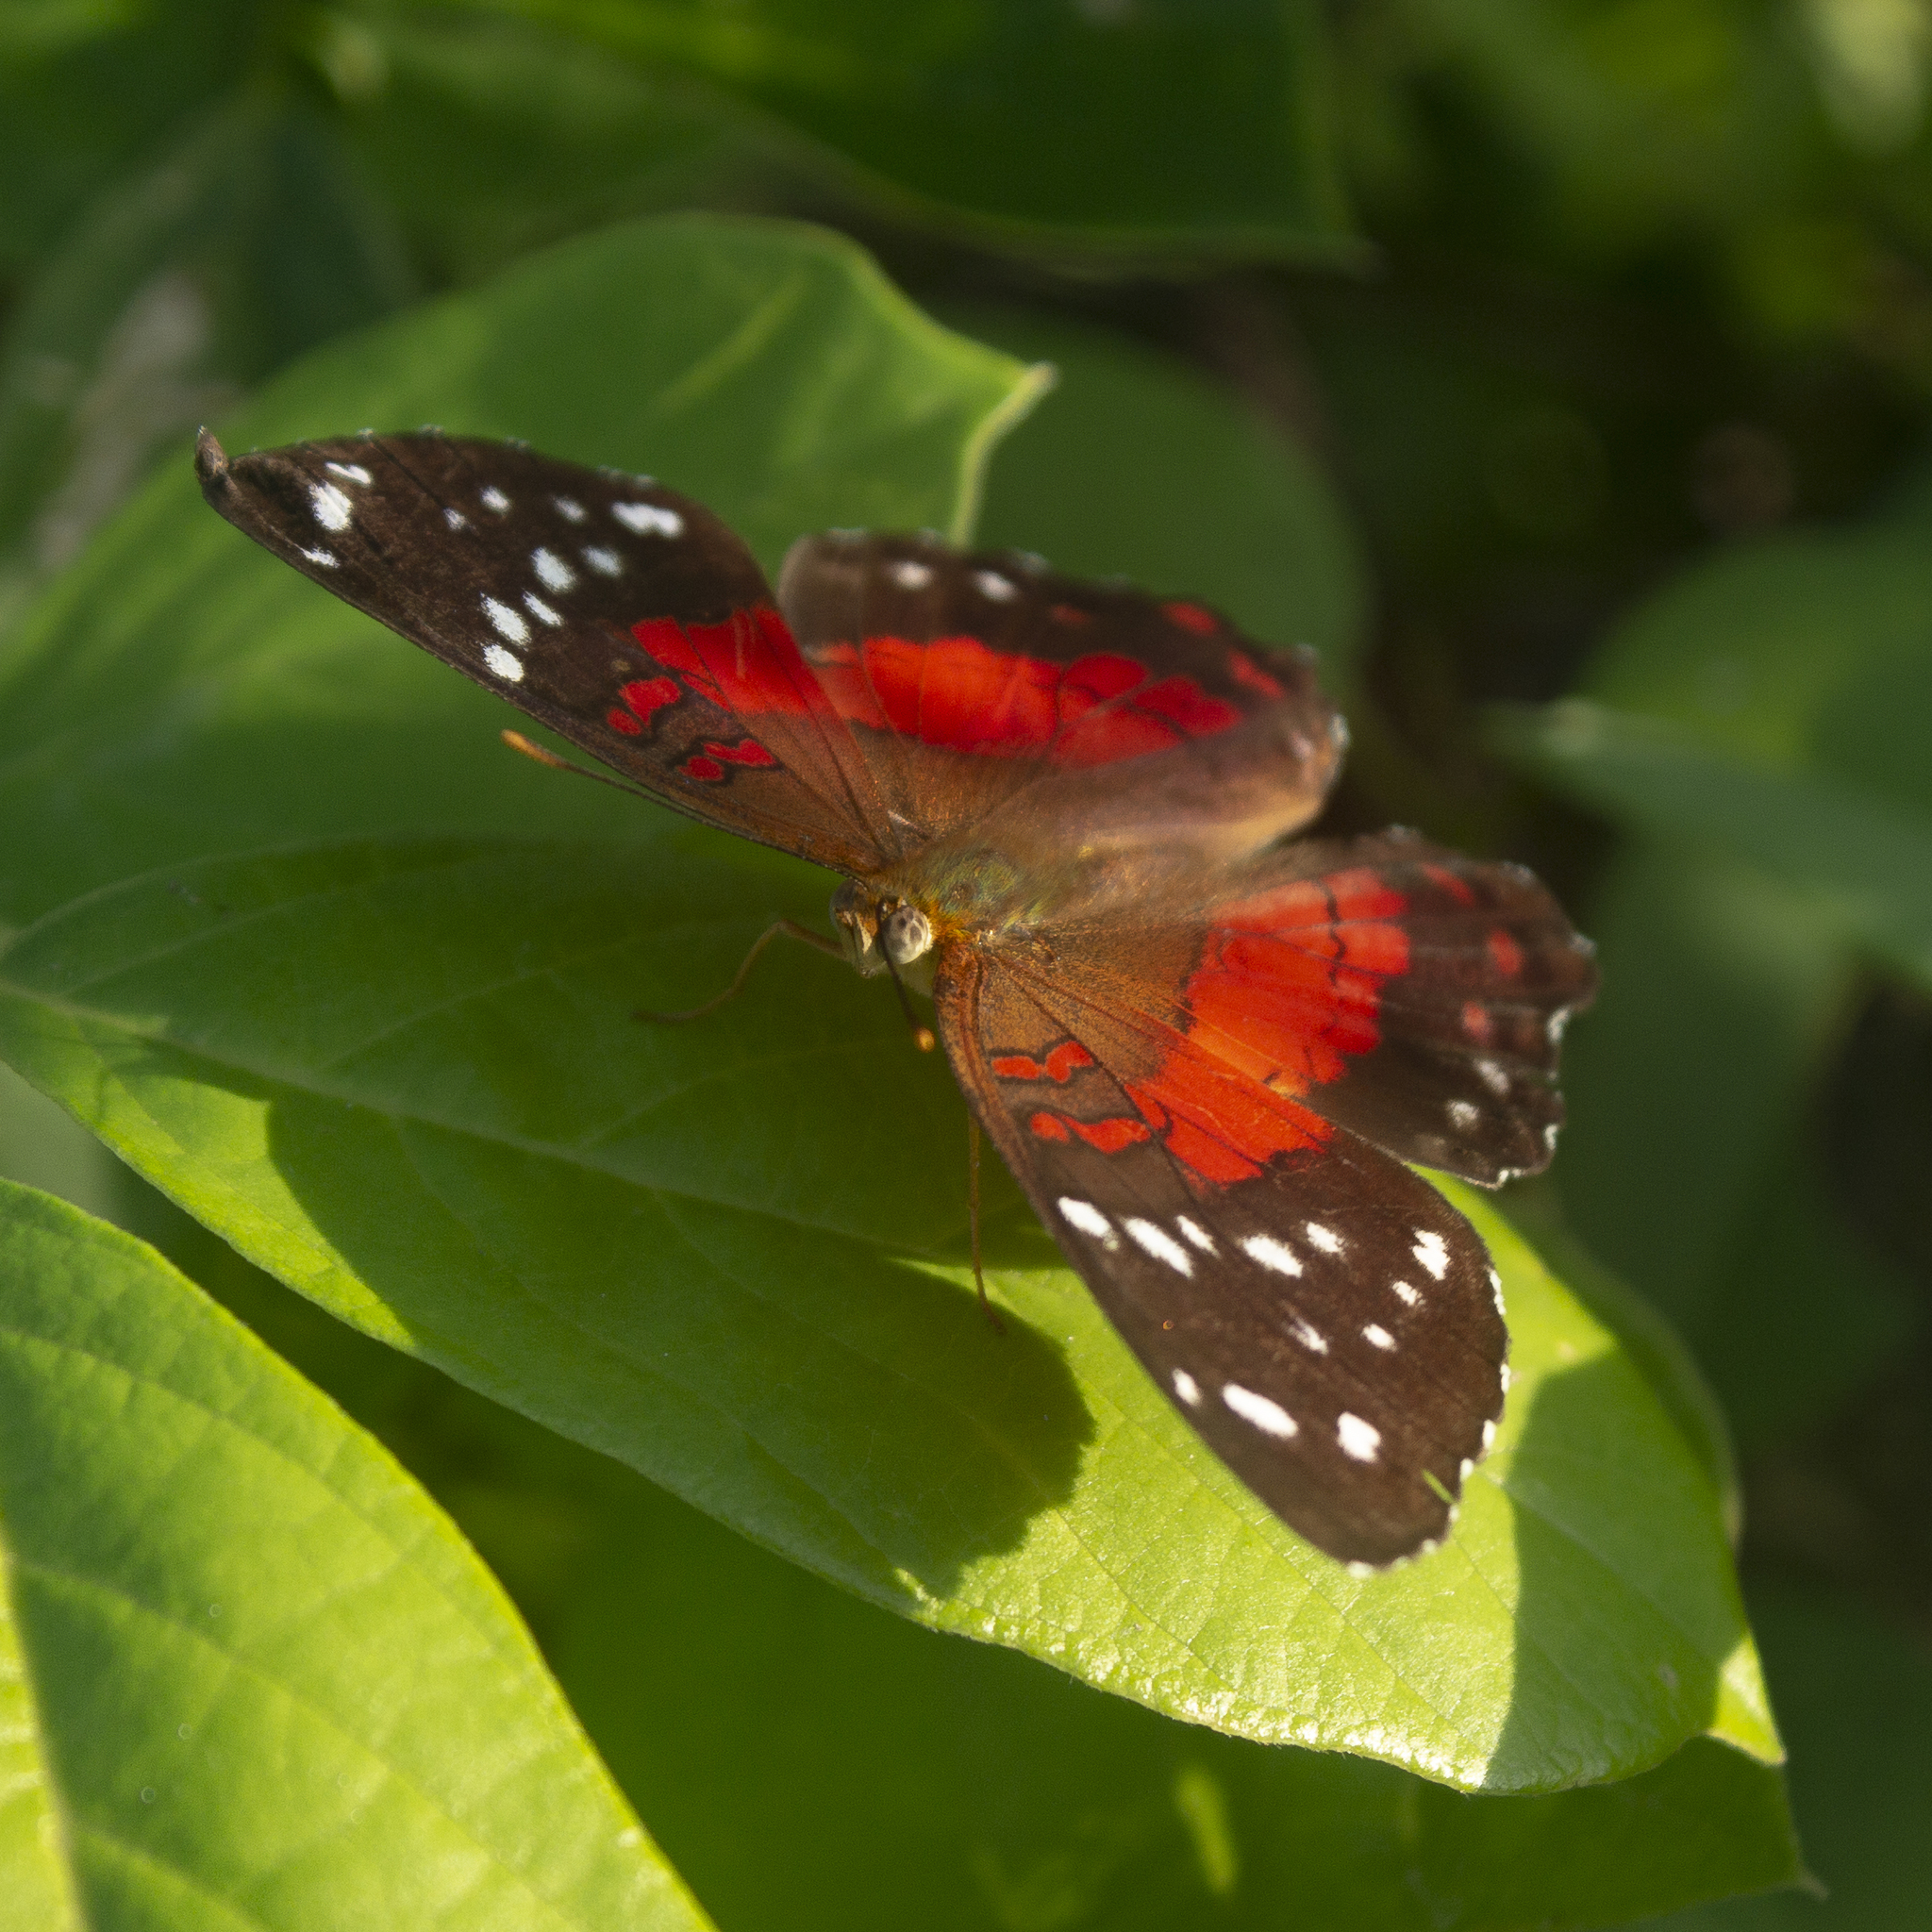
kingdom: Animalia
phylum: Arthropoda
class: Insecta
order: Lepidoptera
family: Nymphalidae
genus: Anartia
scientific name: Anartia amathea
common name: Red peacock
